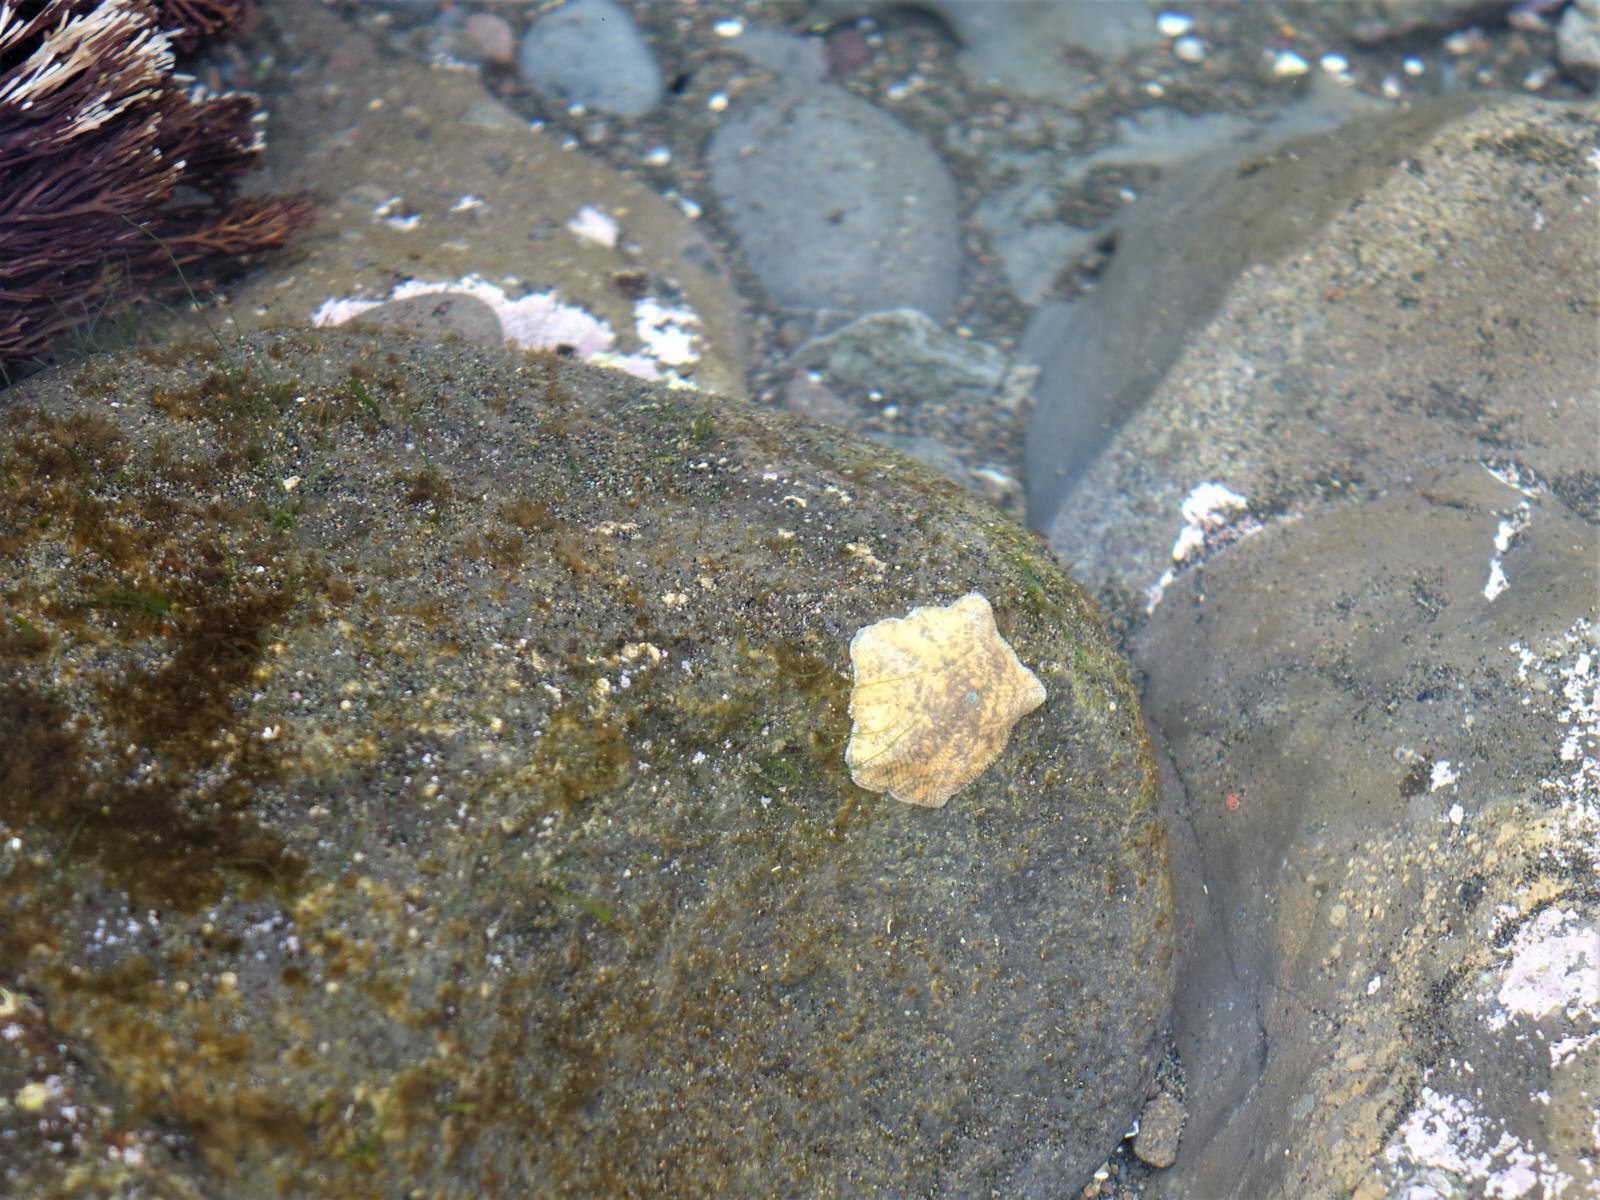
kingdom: Animalia
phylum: Echinodermata
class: Asteroidea
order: Valvatida
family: Asterinidae
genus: Patiriella
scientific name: Patiriella regularis
